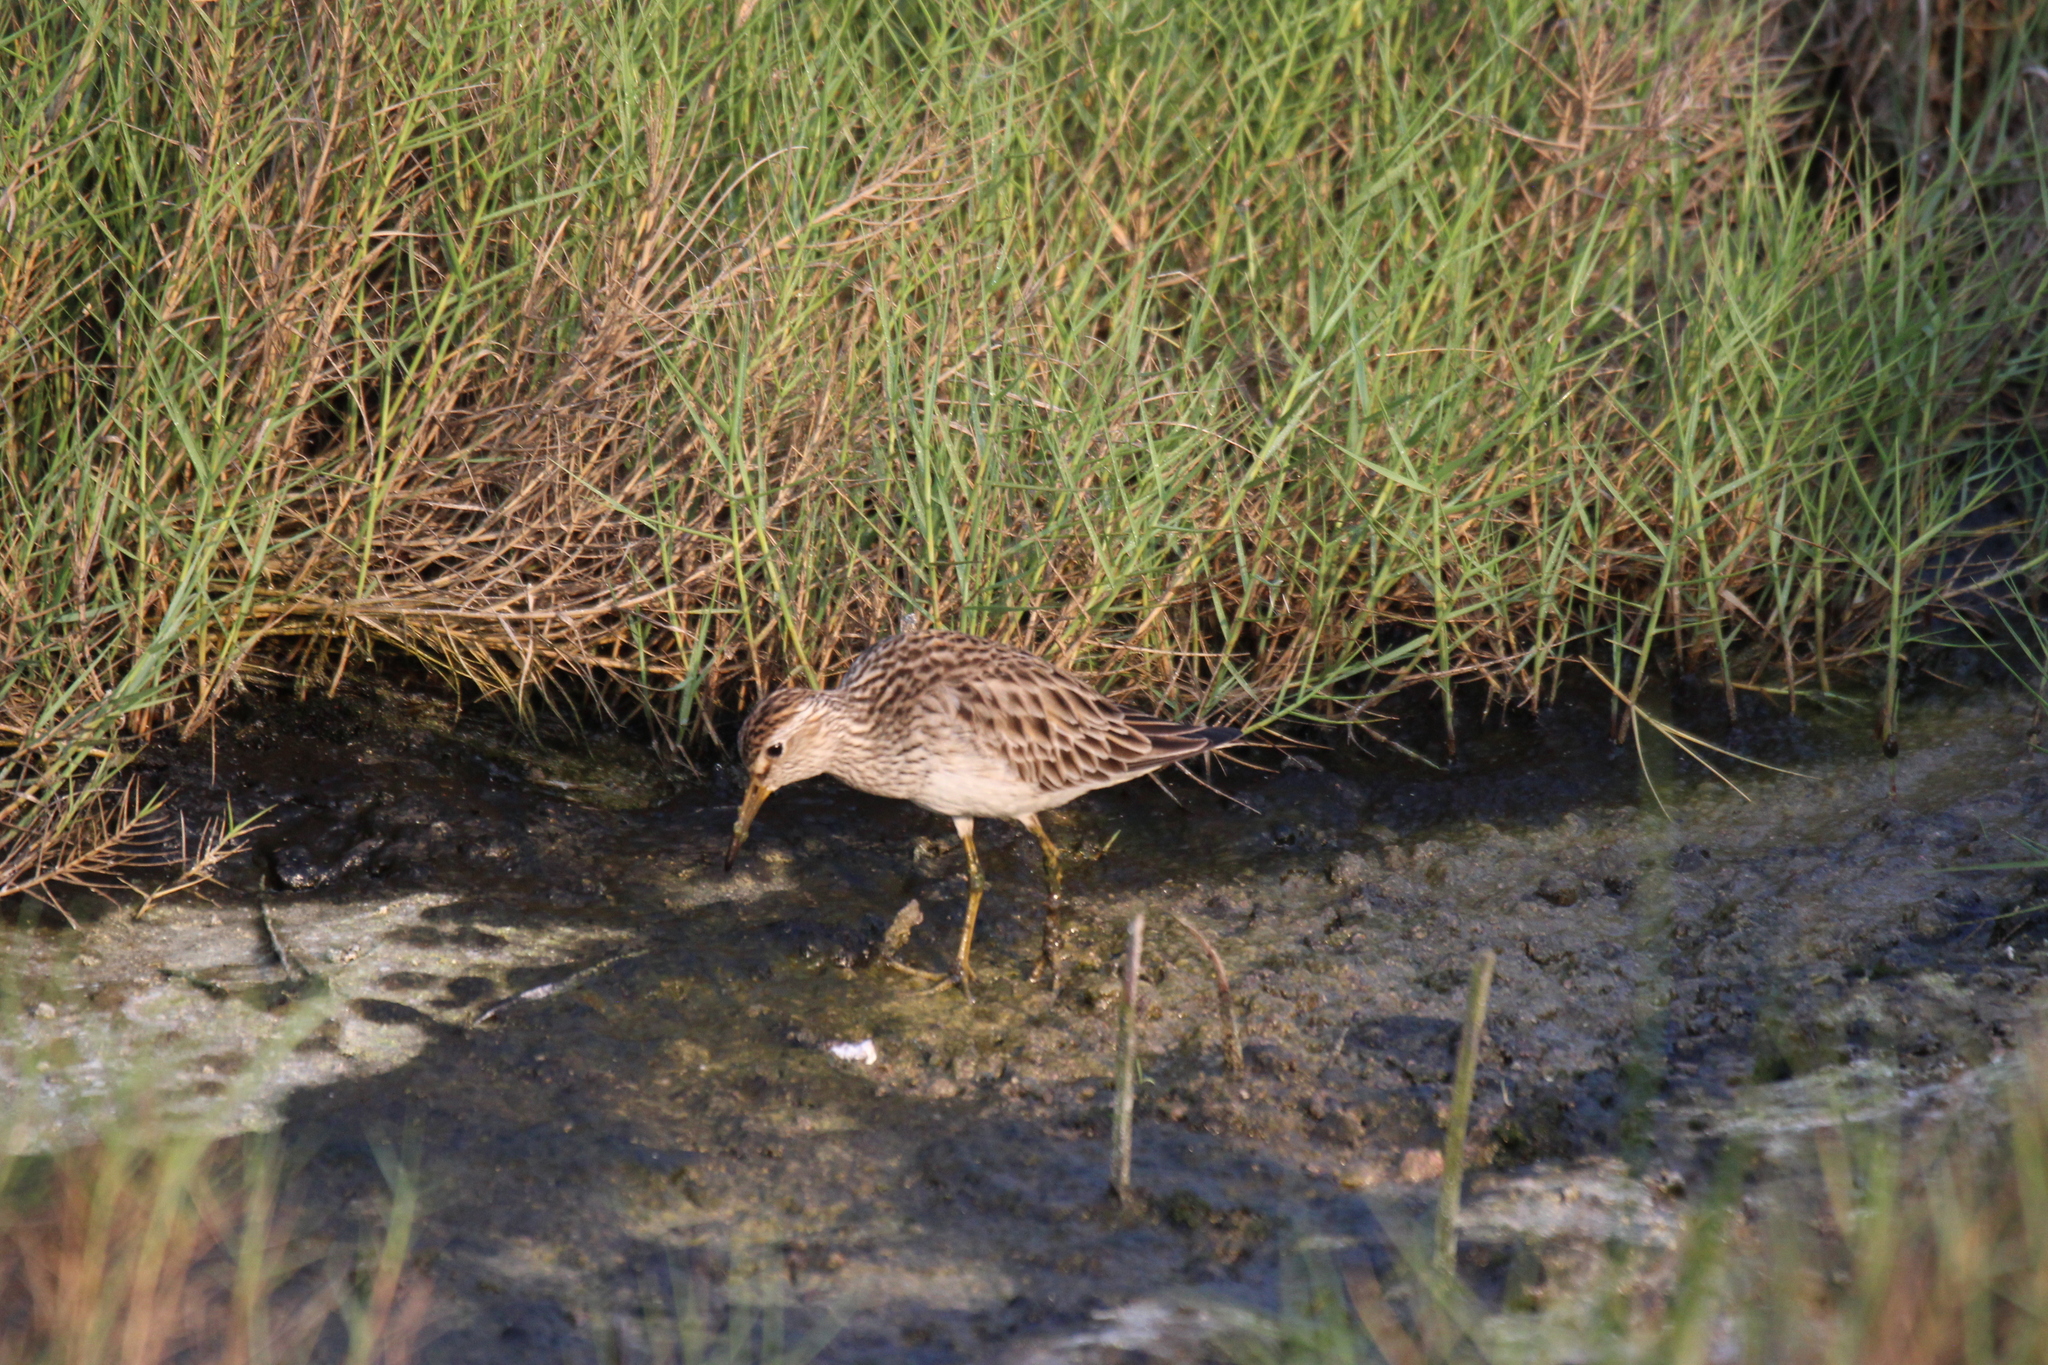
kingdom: Animalia
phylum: Chordata
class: Aves
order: Charadriiformes
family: Scolopacidae
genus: Calidris
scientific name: Calidris melanotos
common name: Pectoral sandpiper
